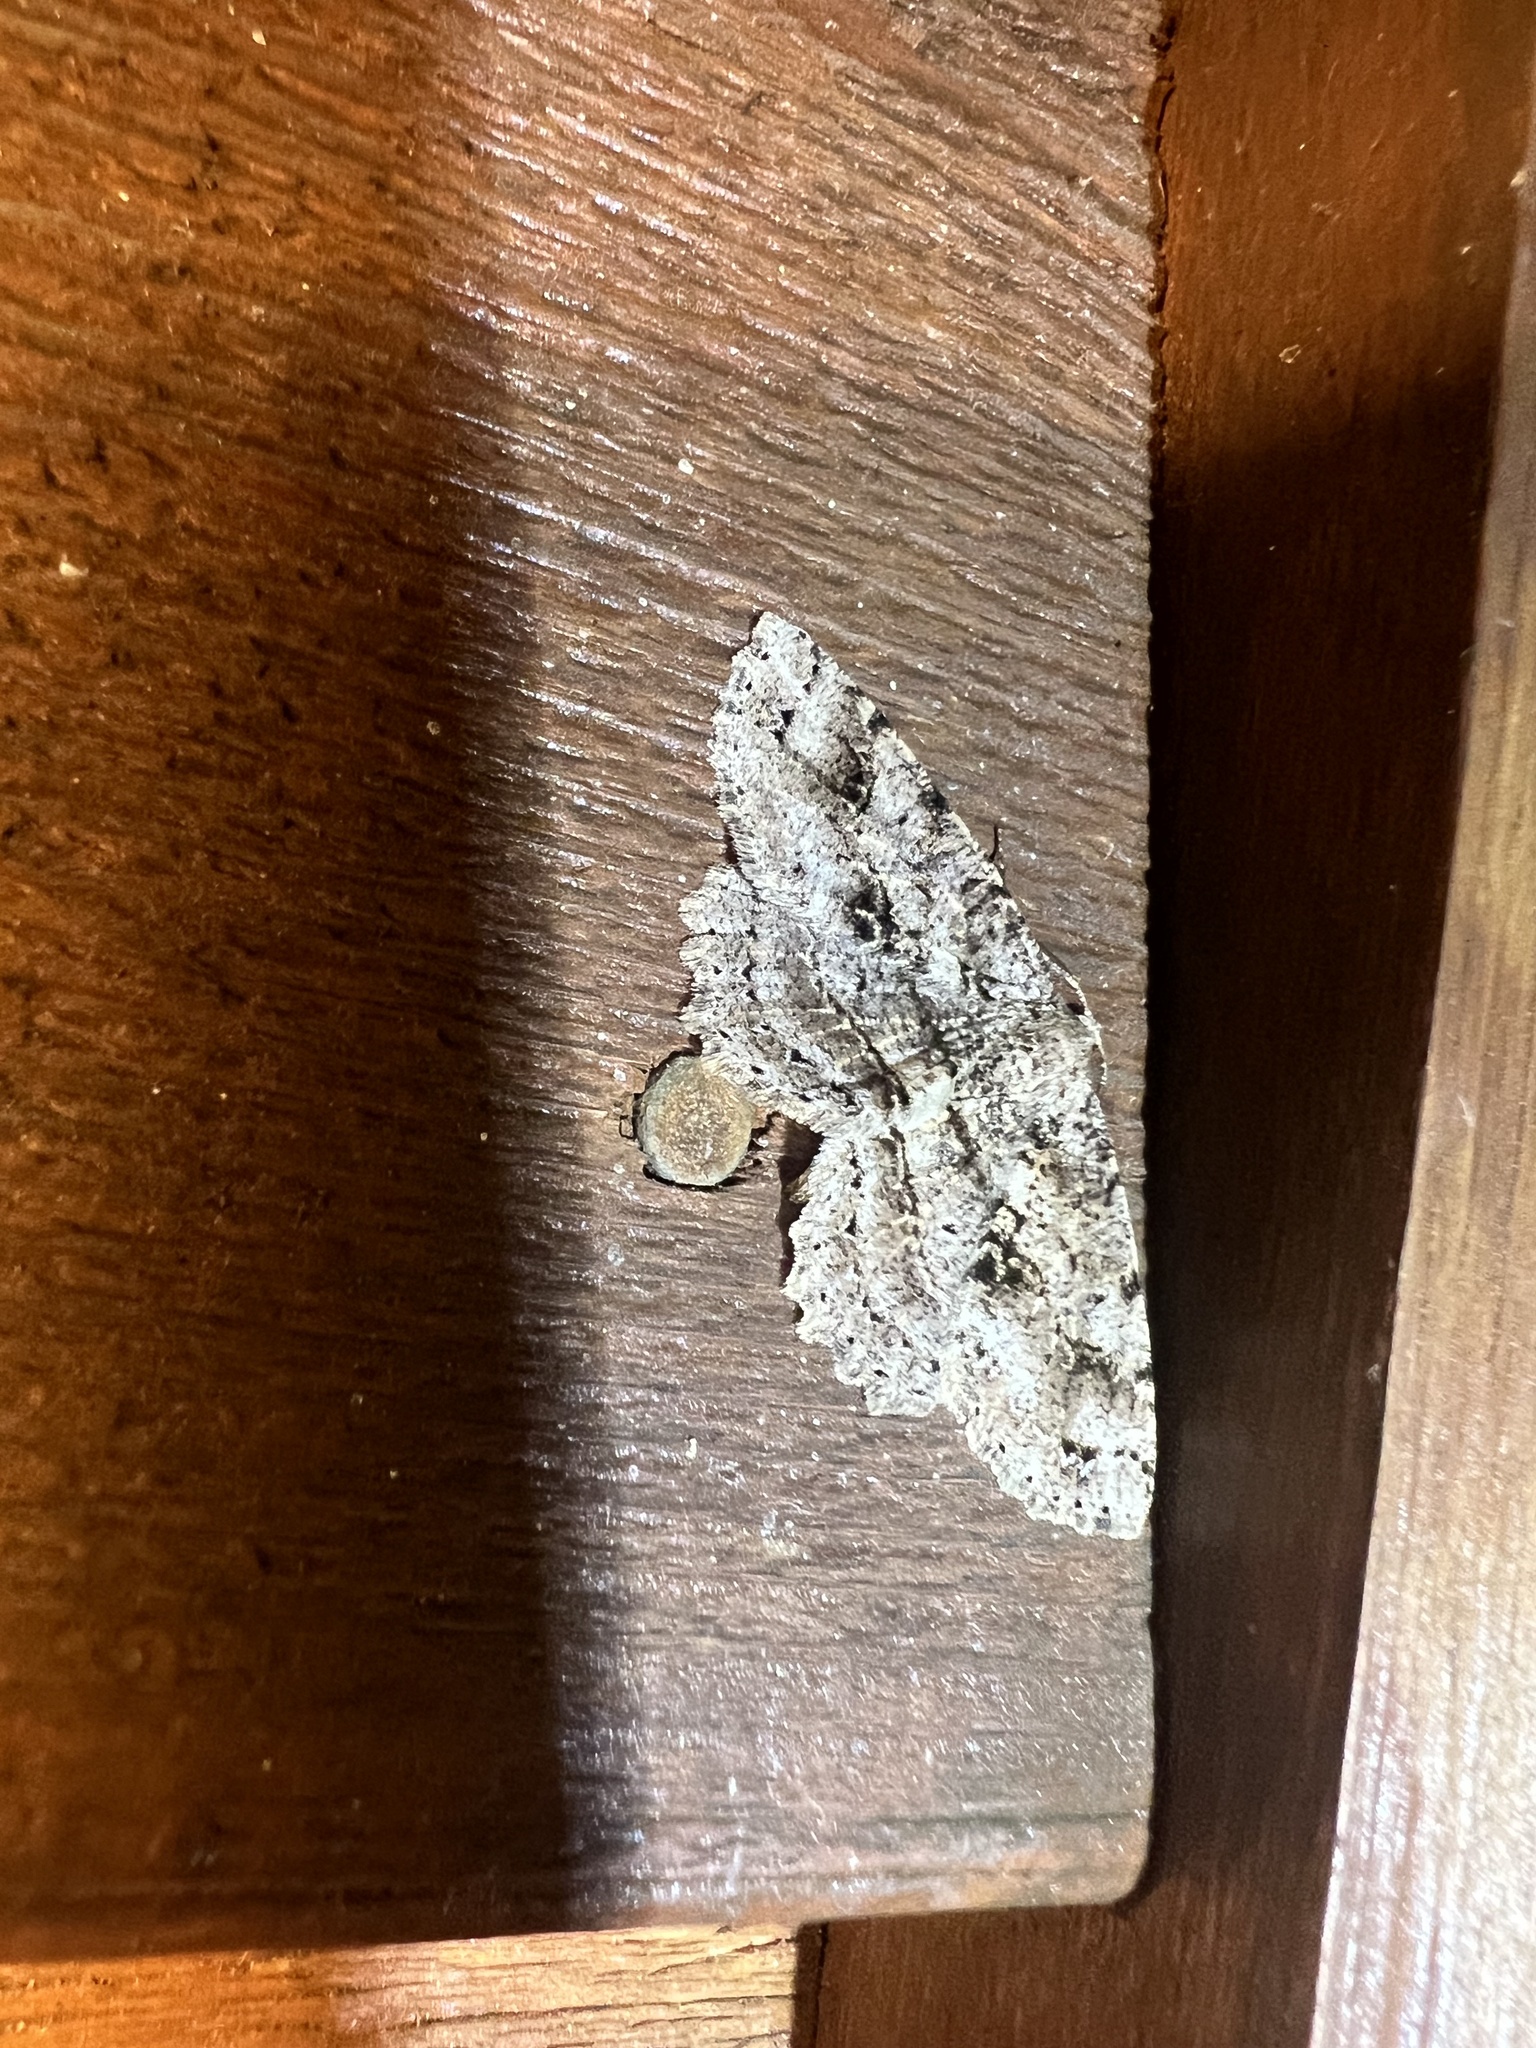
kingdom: Animalia
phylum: Arthropoda
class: Insecta
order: Lepidoptera
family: Geometridae
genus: Melanolophia
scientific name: Melanolophia canadaria
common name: Canadian melanolophia
